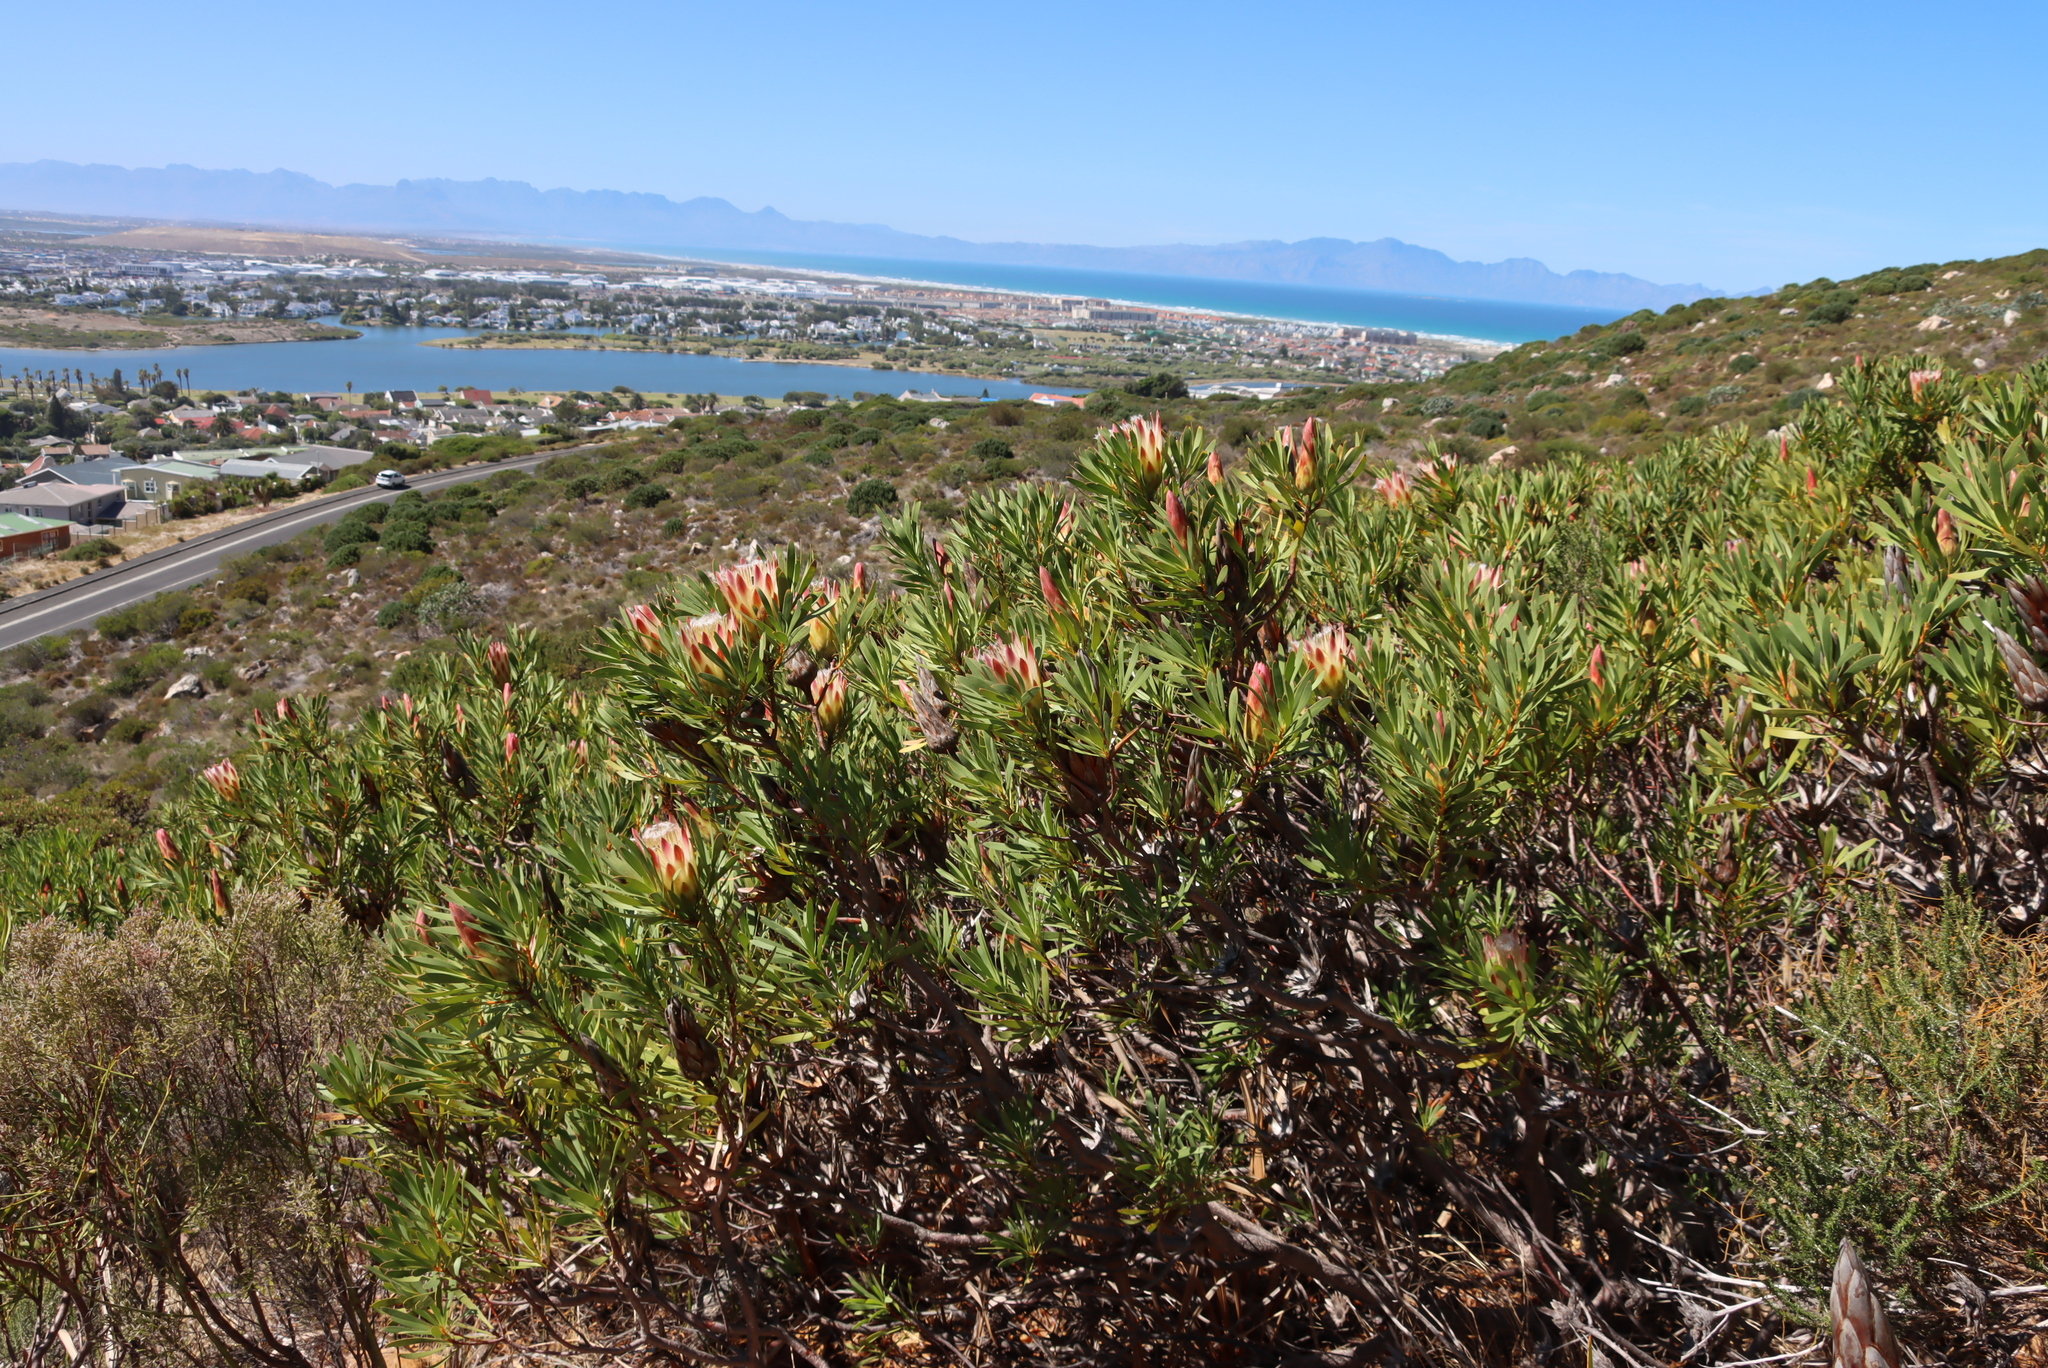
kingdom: Plantae
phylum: Tracheophyta
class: Magnoliopsida
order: Proteales
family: Proteaceae
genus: Protea
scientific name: Protea repens
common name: Sugarbush
